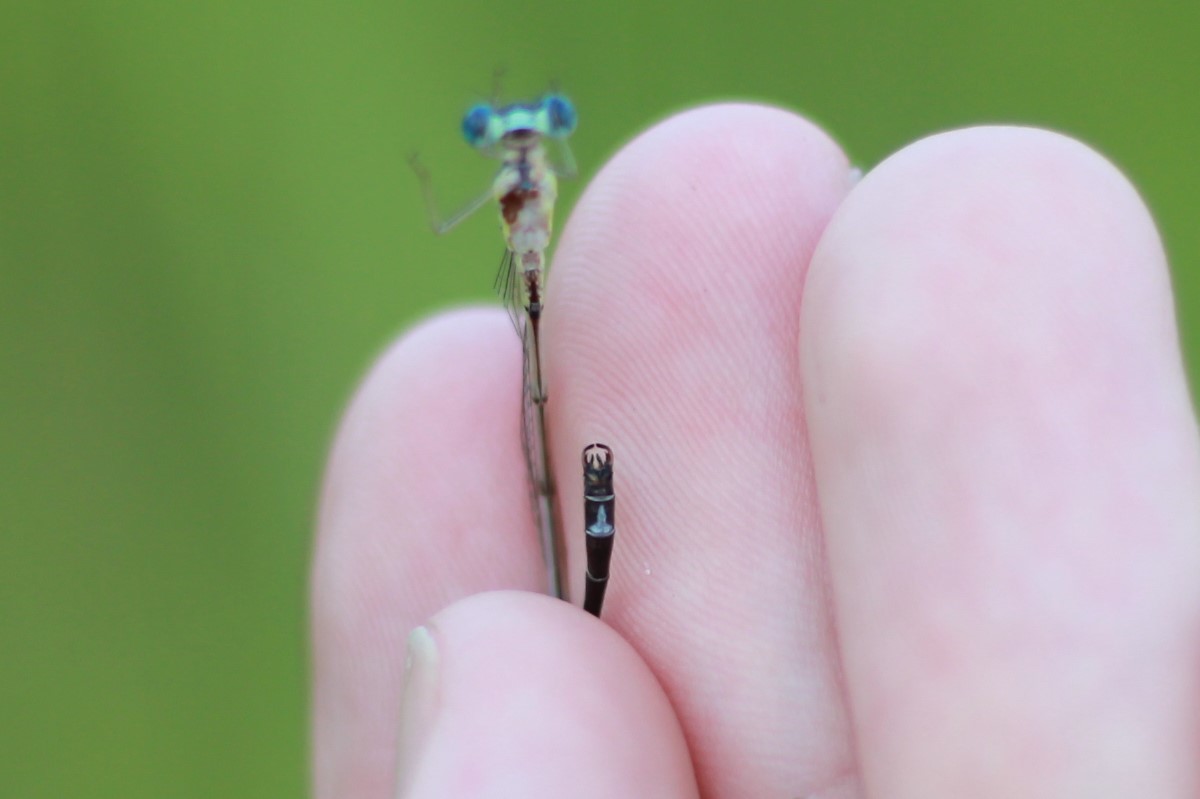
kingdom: Animalia
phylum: Arthropoda
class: Insecta
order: Odonata
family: Lestidae
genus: Lestes
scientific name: Lestes rectangularis
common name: Slender spreadwing
